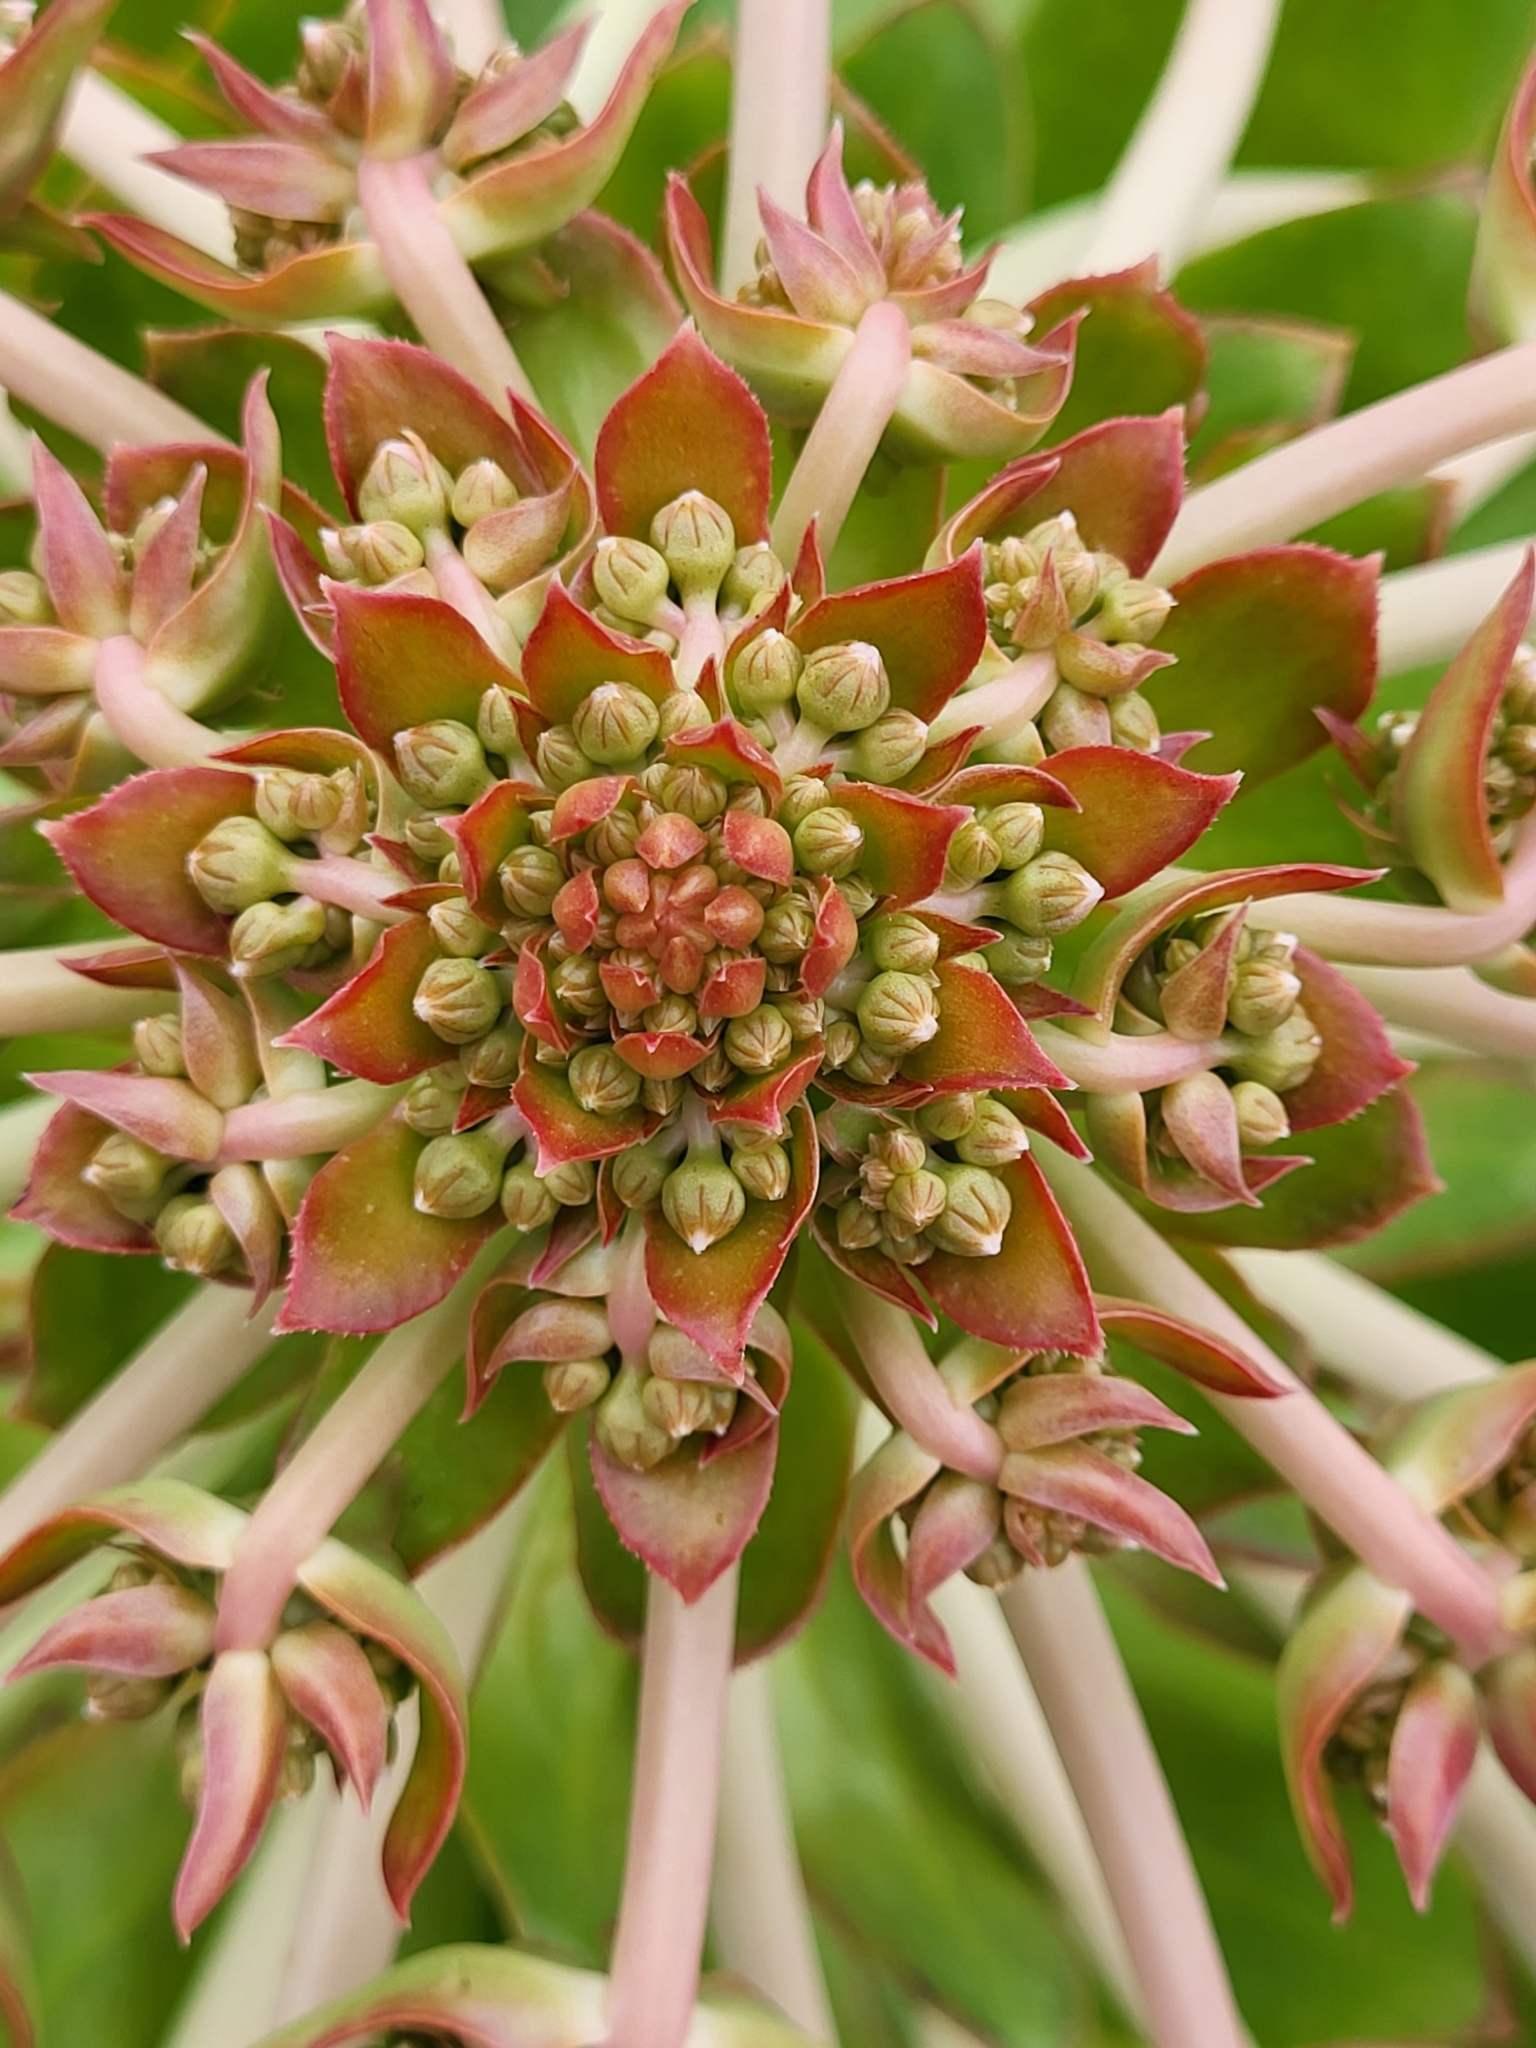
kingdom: Plantae
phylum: Tracheophyta
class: Magnoliopsida
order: Saxifragales
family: Crassulaceae
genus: Aeonium
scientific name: Aeonium appendiculatum
